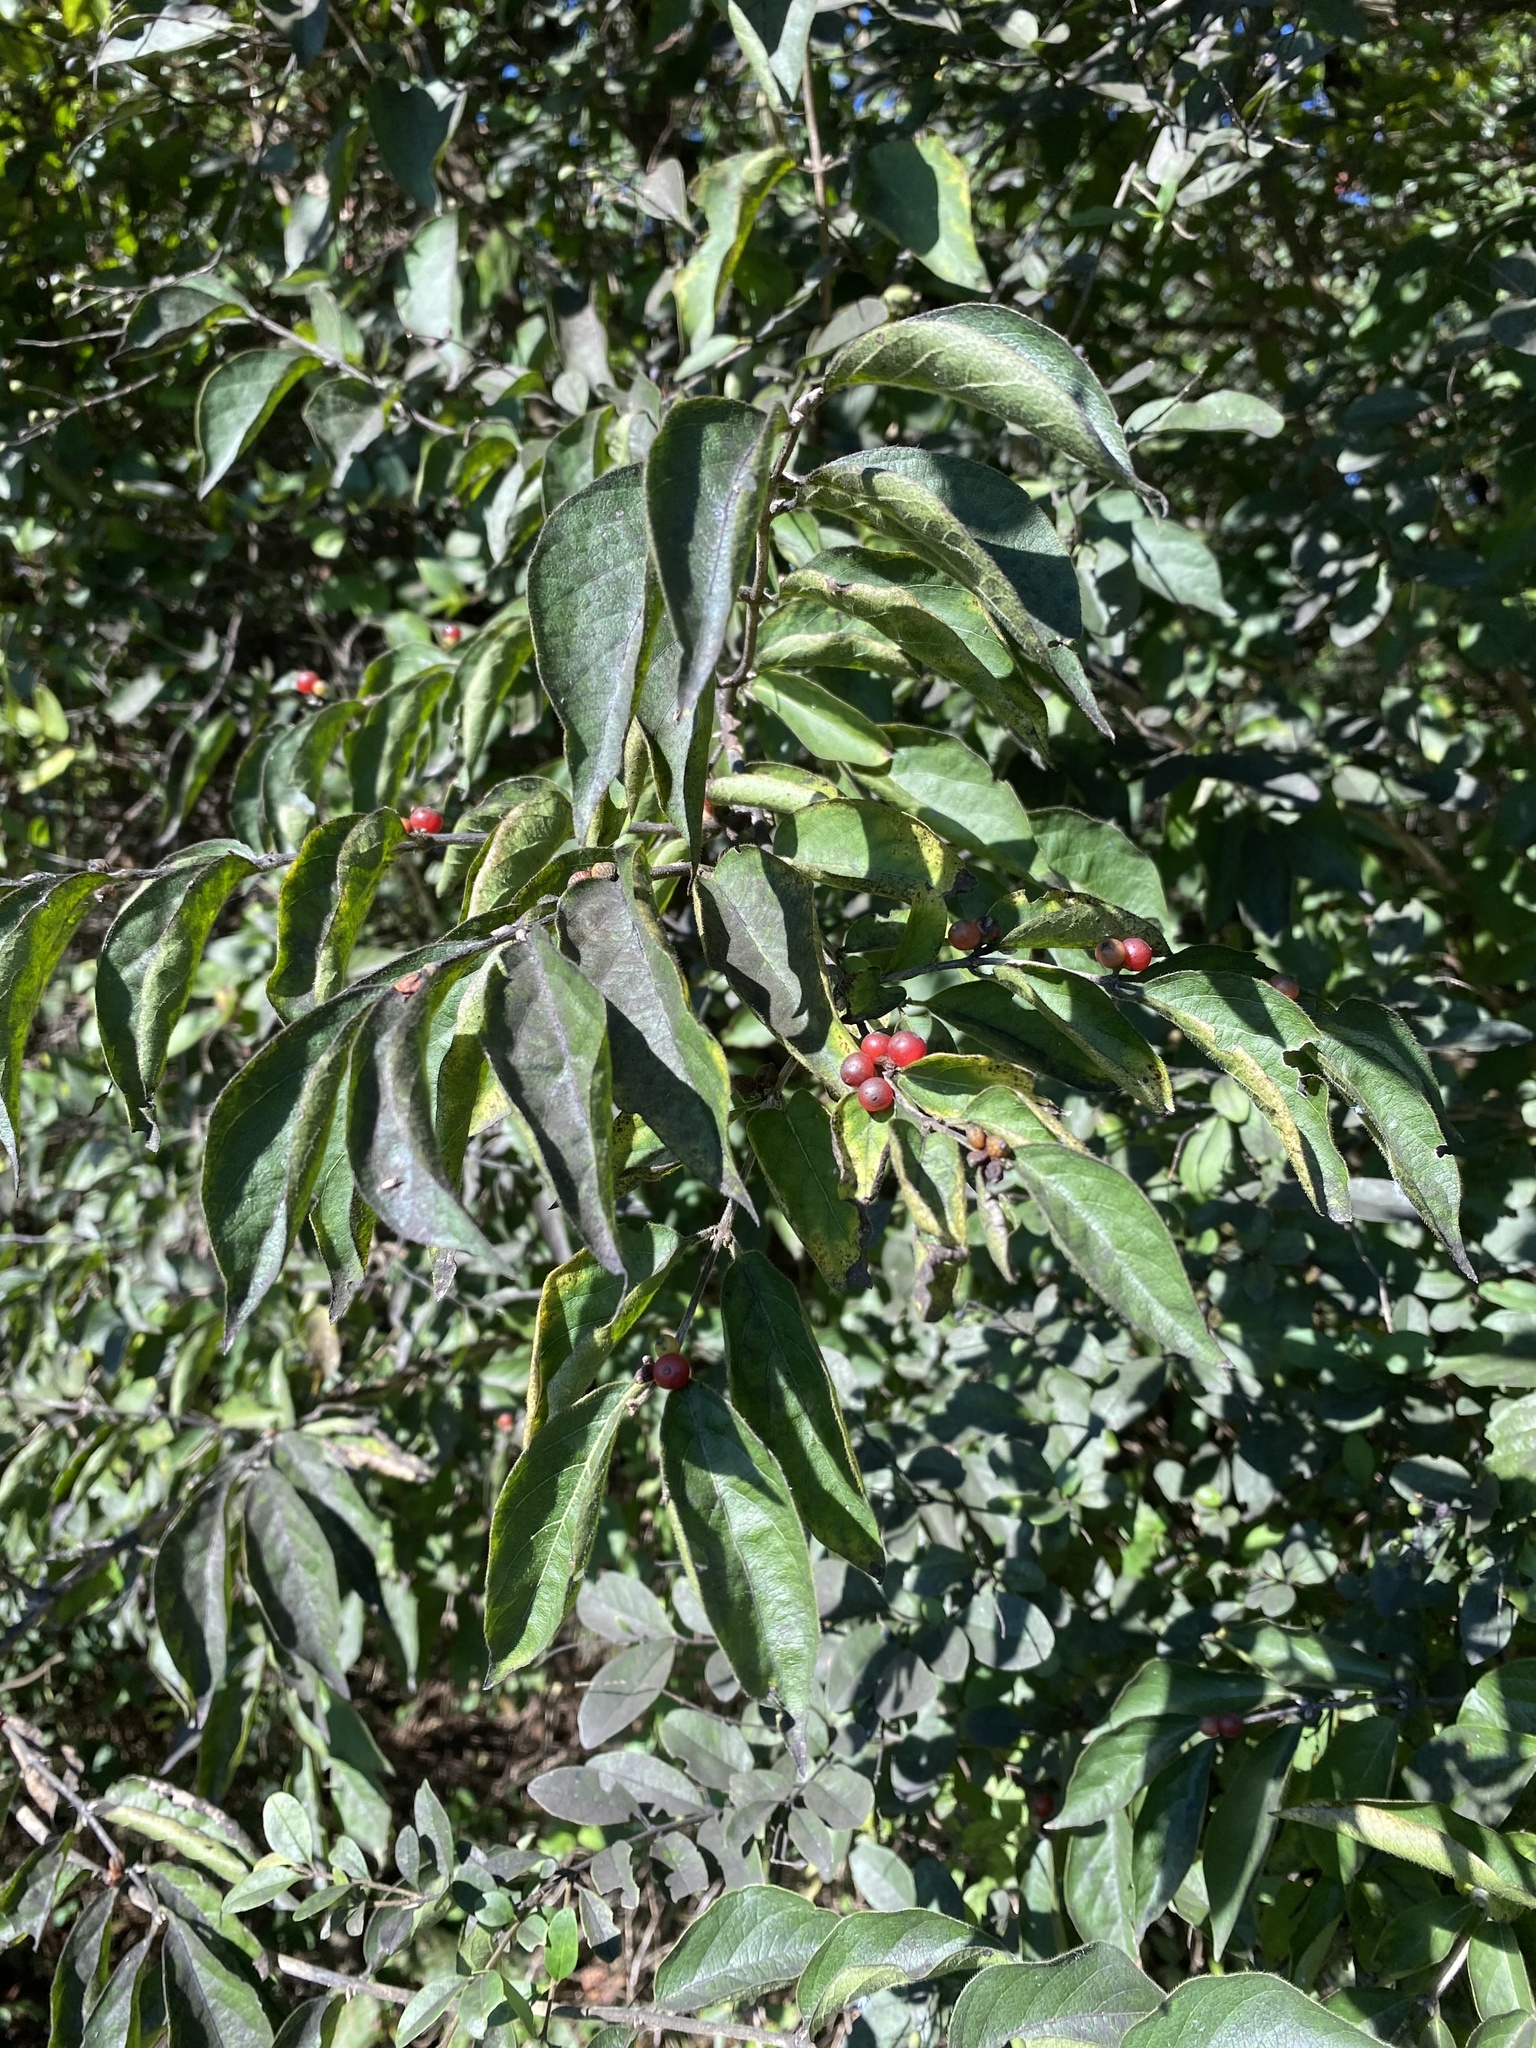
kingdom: Plantae
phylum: Tracheophyta
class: Magnoliopsida
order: Dipsacales
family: Caprifoliaceae
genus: Lonicera
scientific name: Lonicera maackii
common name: Amur honeysuckle
